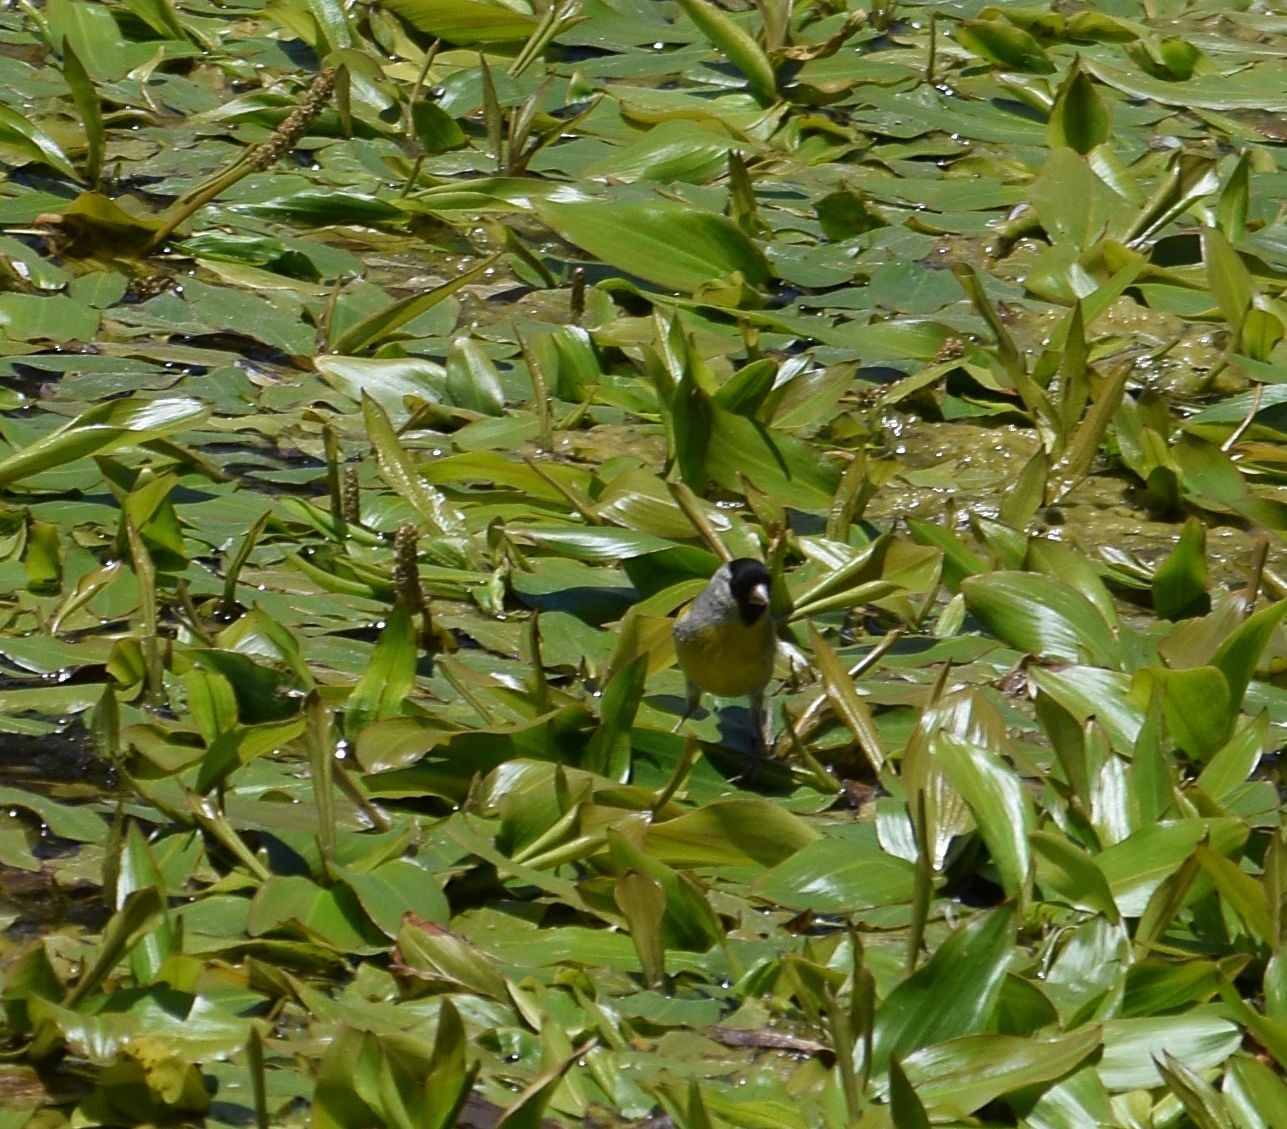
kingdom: Animalia
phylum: Chordata
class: Aves
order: Passeriformes
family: Fringillidae
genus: Spinus
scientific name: Spinus lawrencei
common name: Lawrence's goldfinch
